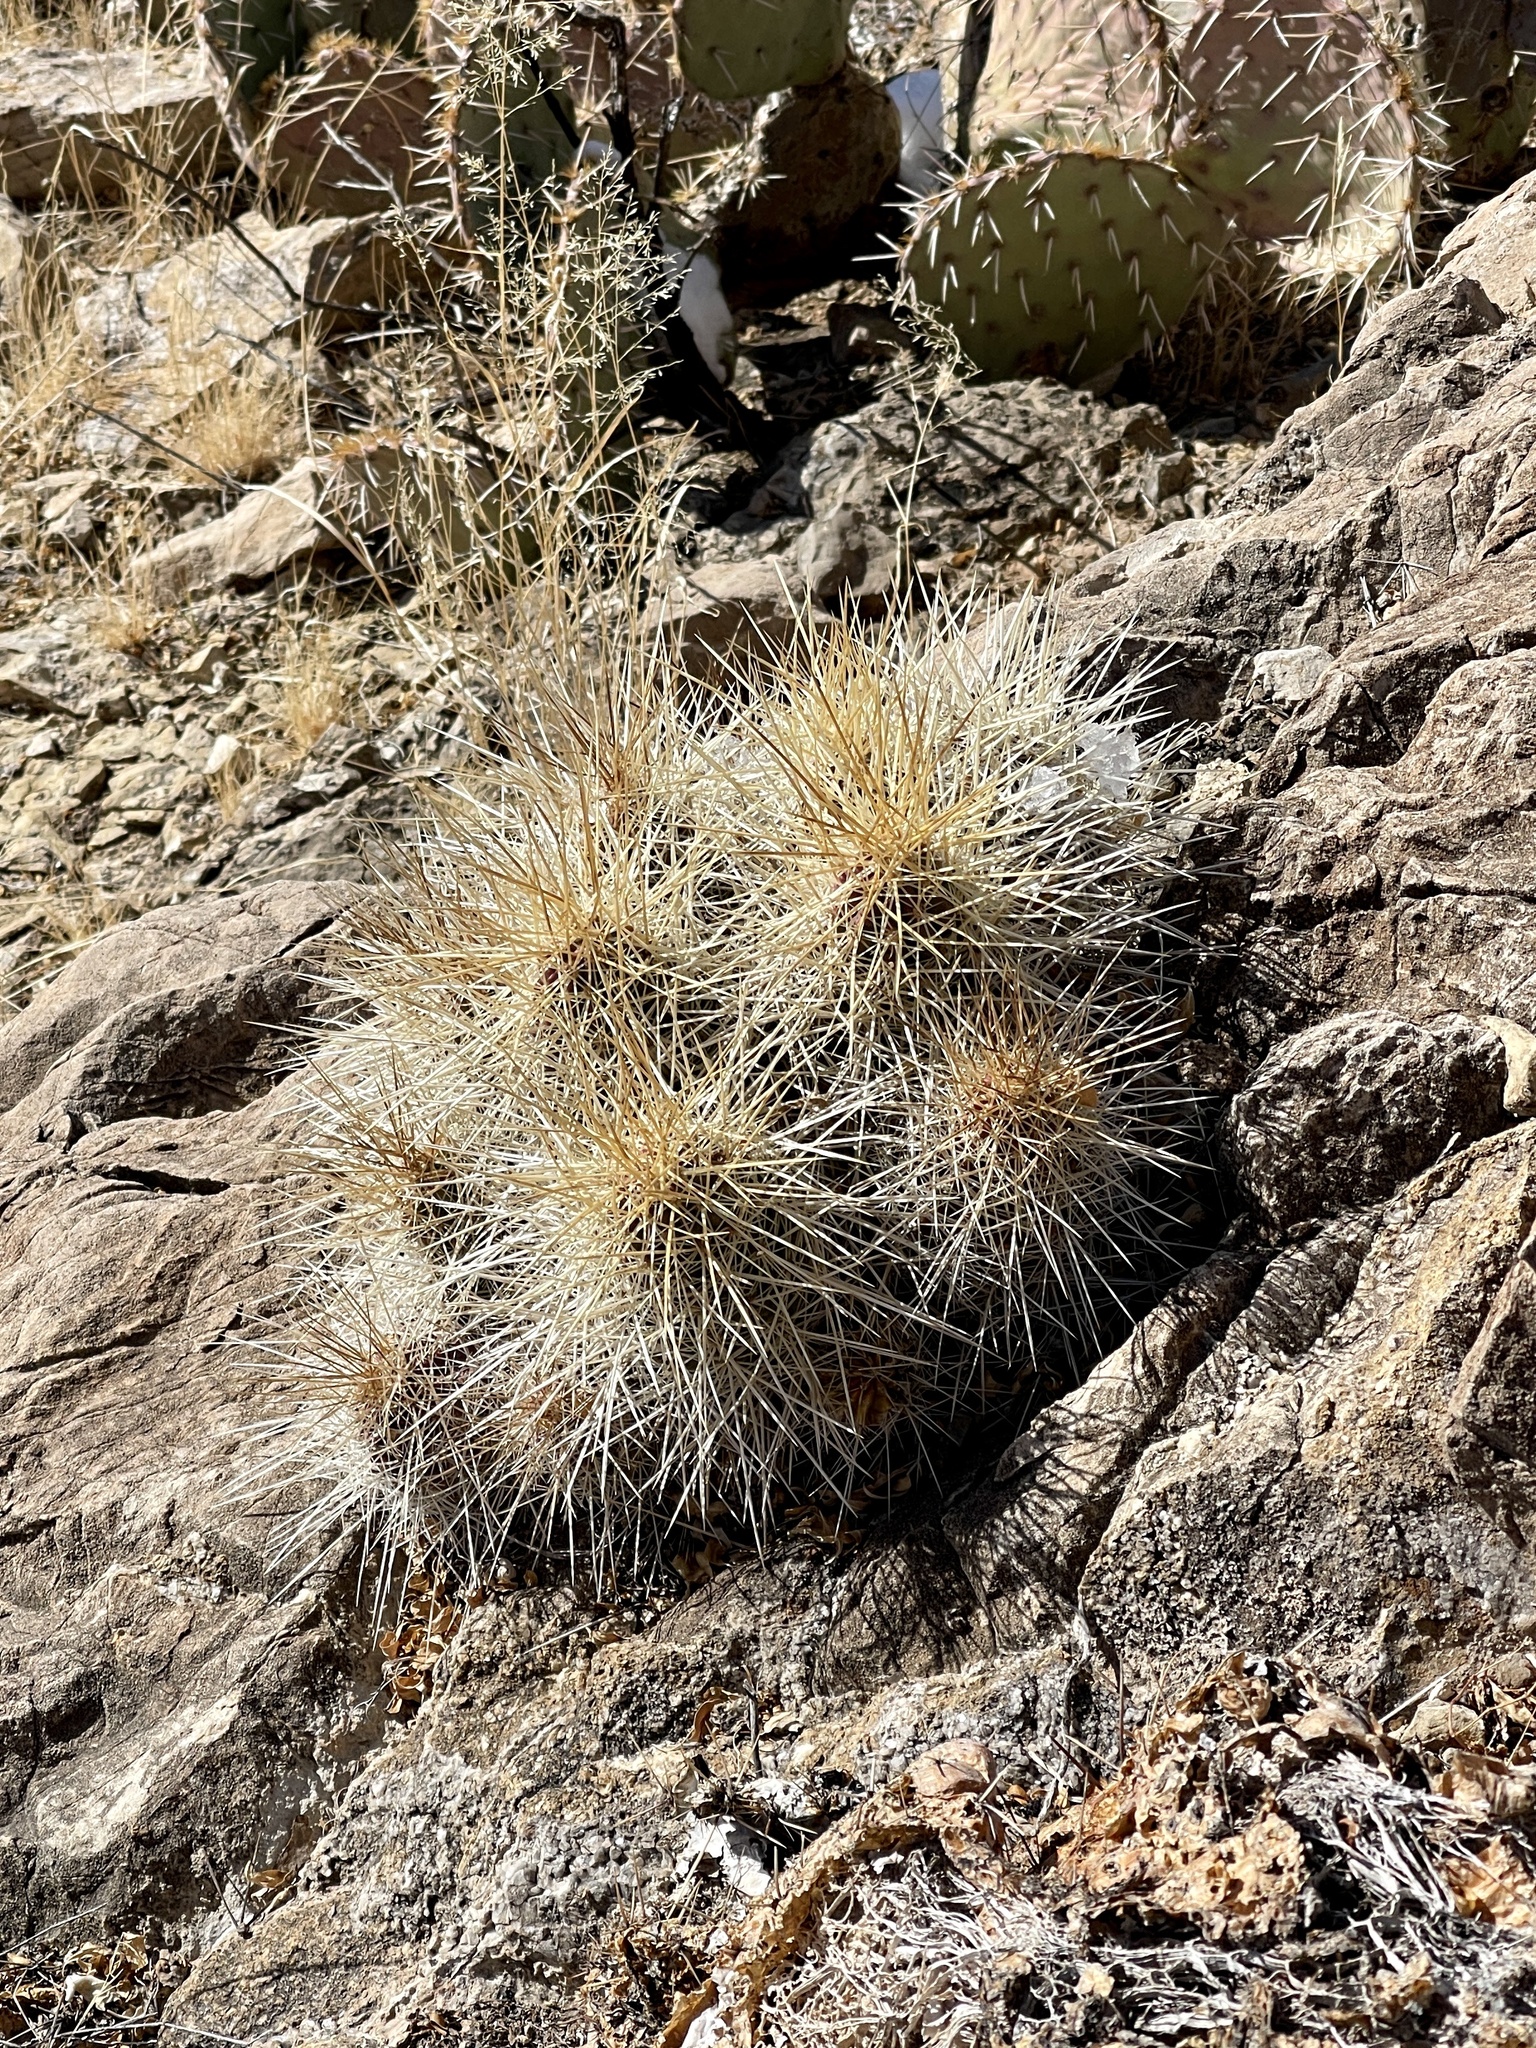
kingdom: Plantae
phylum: Tracheophyta
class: Magnoliopsida
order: Caryophyllales
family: Cactaceae
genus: Echinocereus
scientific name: Echinocereus stramineus
